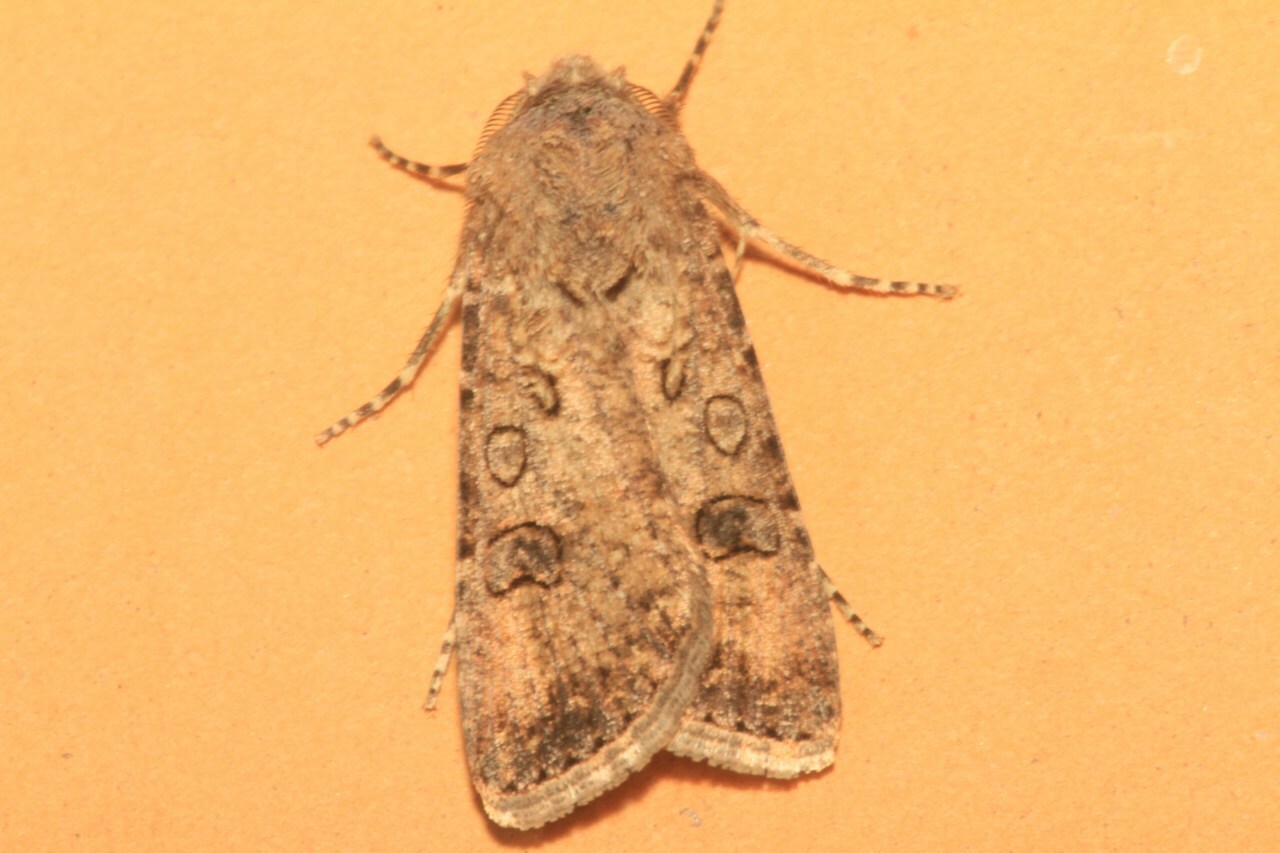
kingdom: Animalia
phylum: Arthropoda
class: Insecta
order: Lepidoptera
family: Noctuidae
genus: Agrotis
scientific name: Agrotis segetum
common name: Turnip moth
